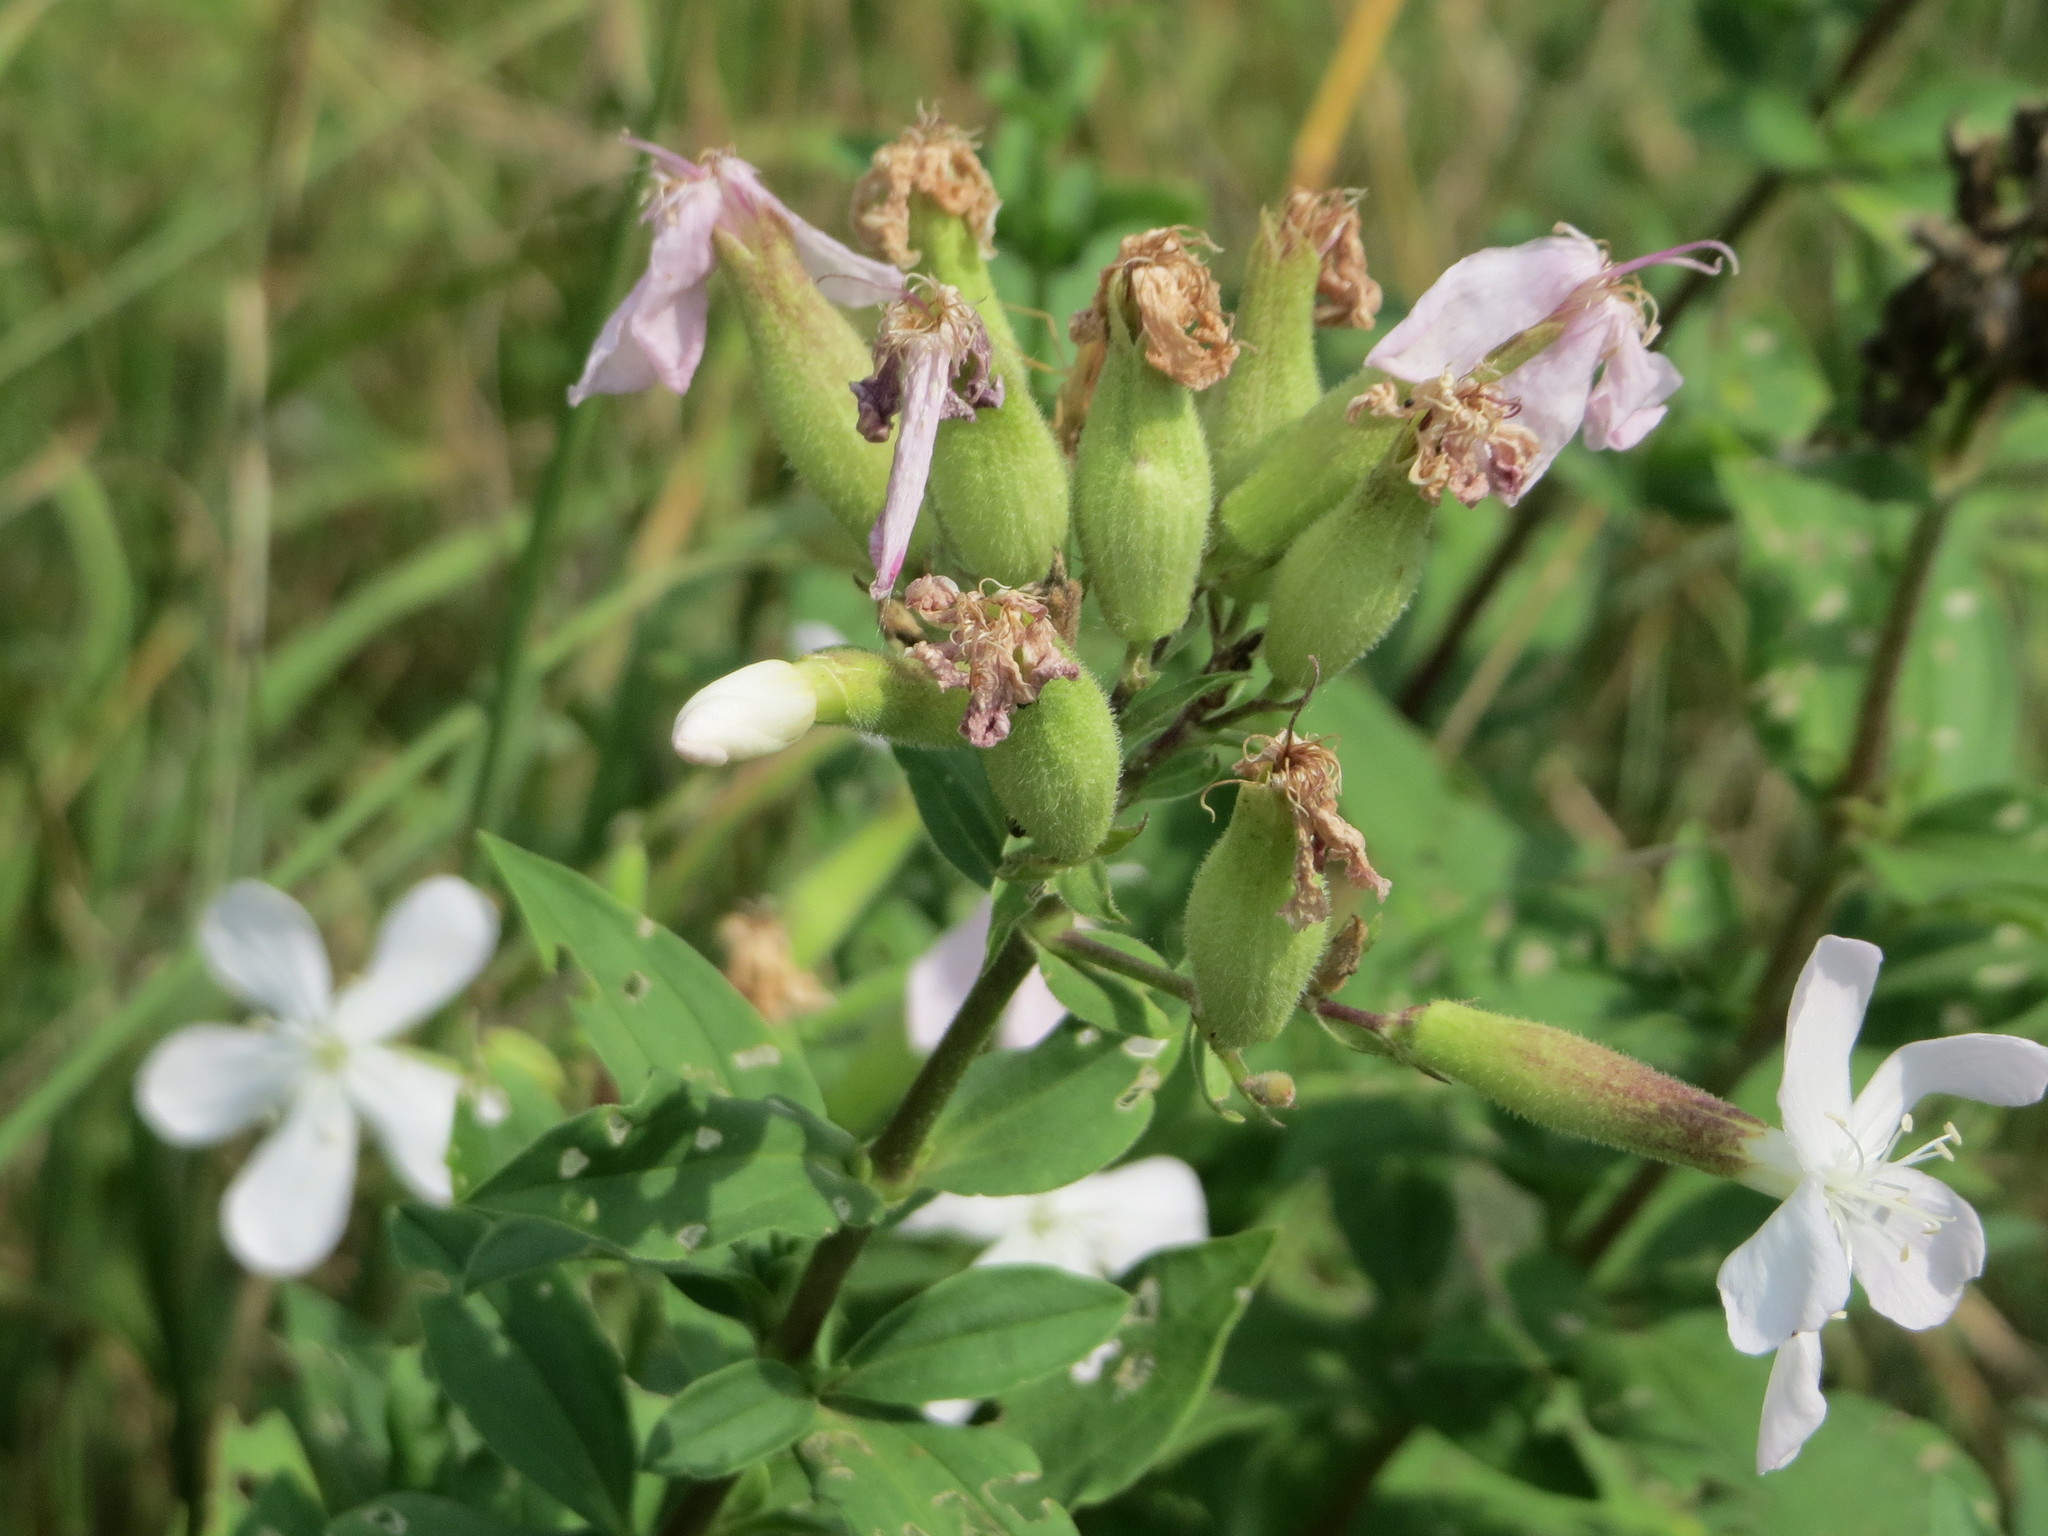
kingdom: Plantae
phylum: Tracheophyta
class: Magnoliopsida
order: Caryophyllales
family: Caryophyllaceae
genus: Saponaria
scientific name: Saponaria officinalis
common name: Soapwort
